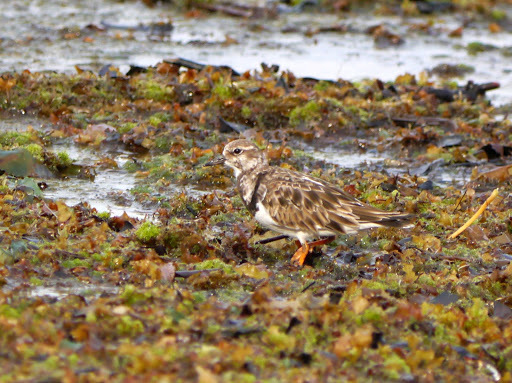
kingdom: Animalia
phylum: Chordata
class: Aves
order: Charadriiformes
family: Scolopacidae
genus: Arenaria
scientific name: Arenaria interpres
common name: Ruddy turnstone
